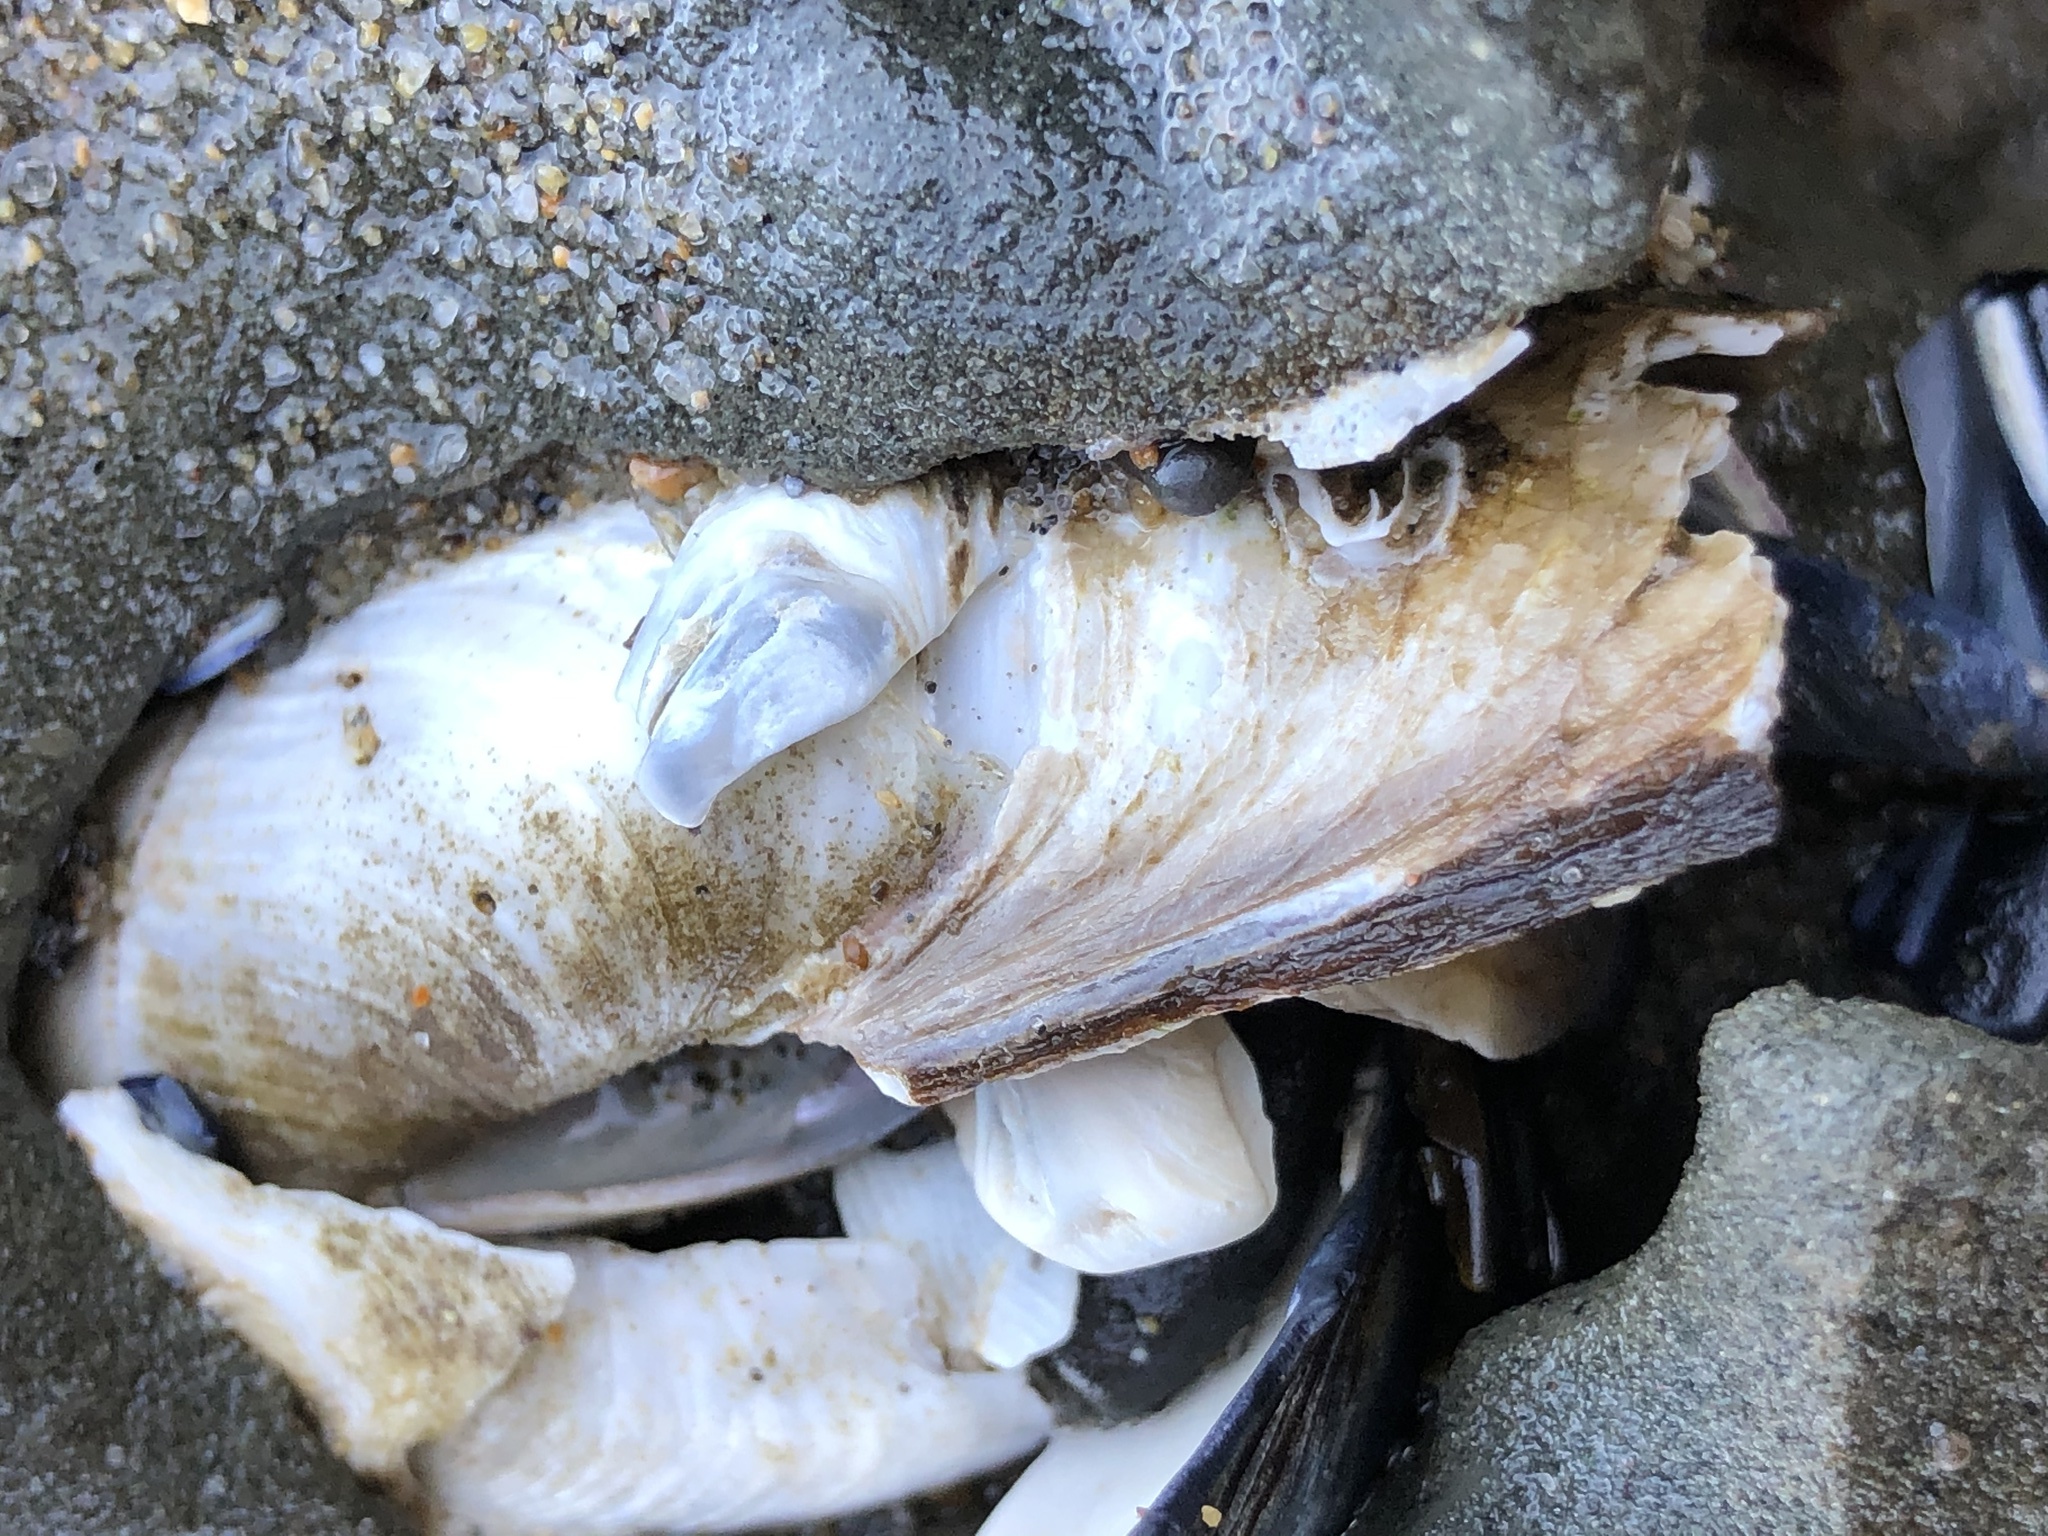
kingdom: Animalia
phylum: Mollusca
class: Bivalvia
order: Myida
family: Pholadidae
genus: Parapholas
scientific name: Parapholas californica
